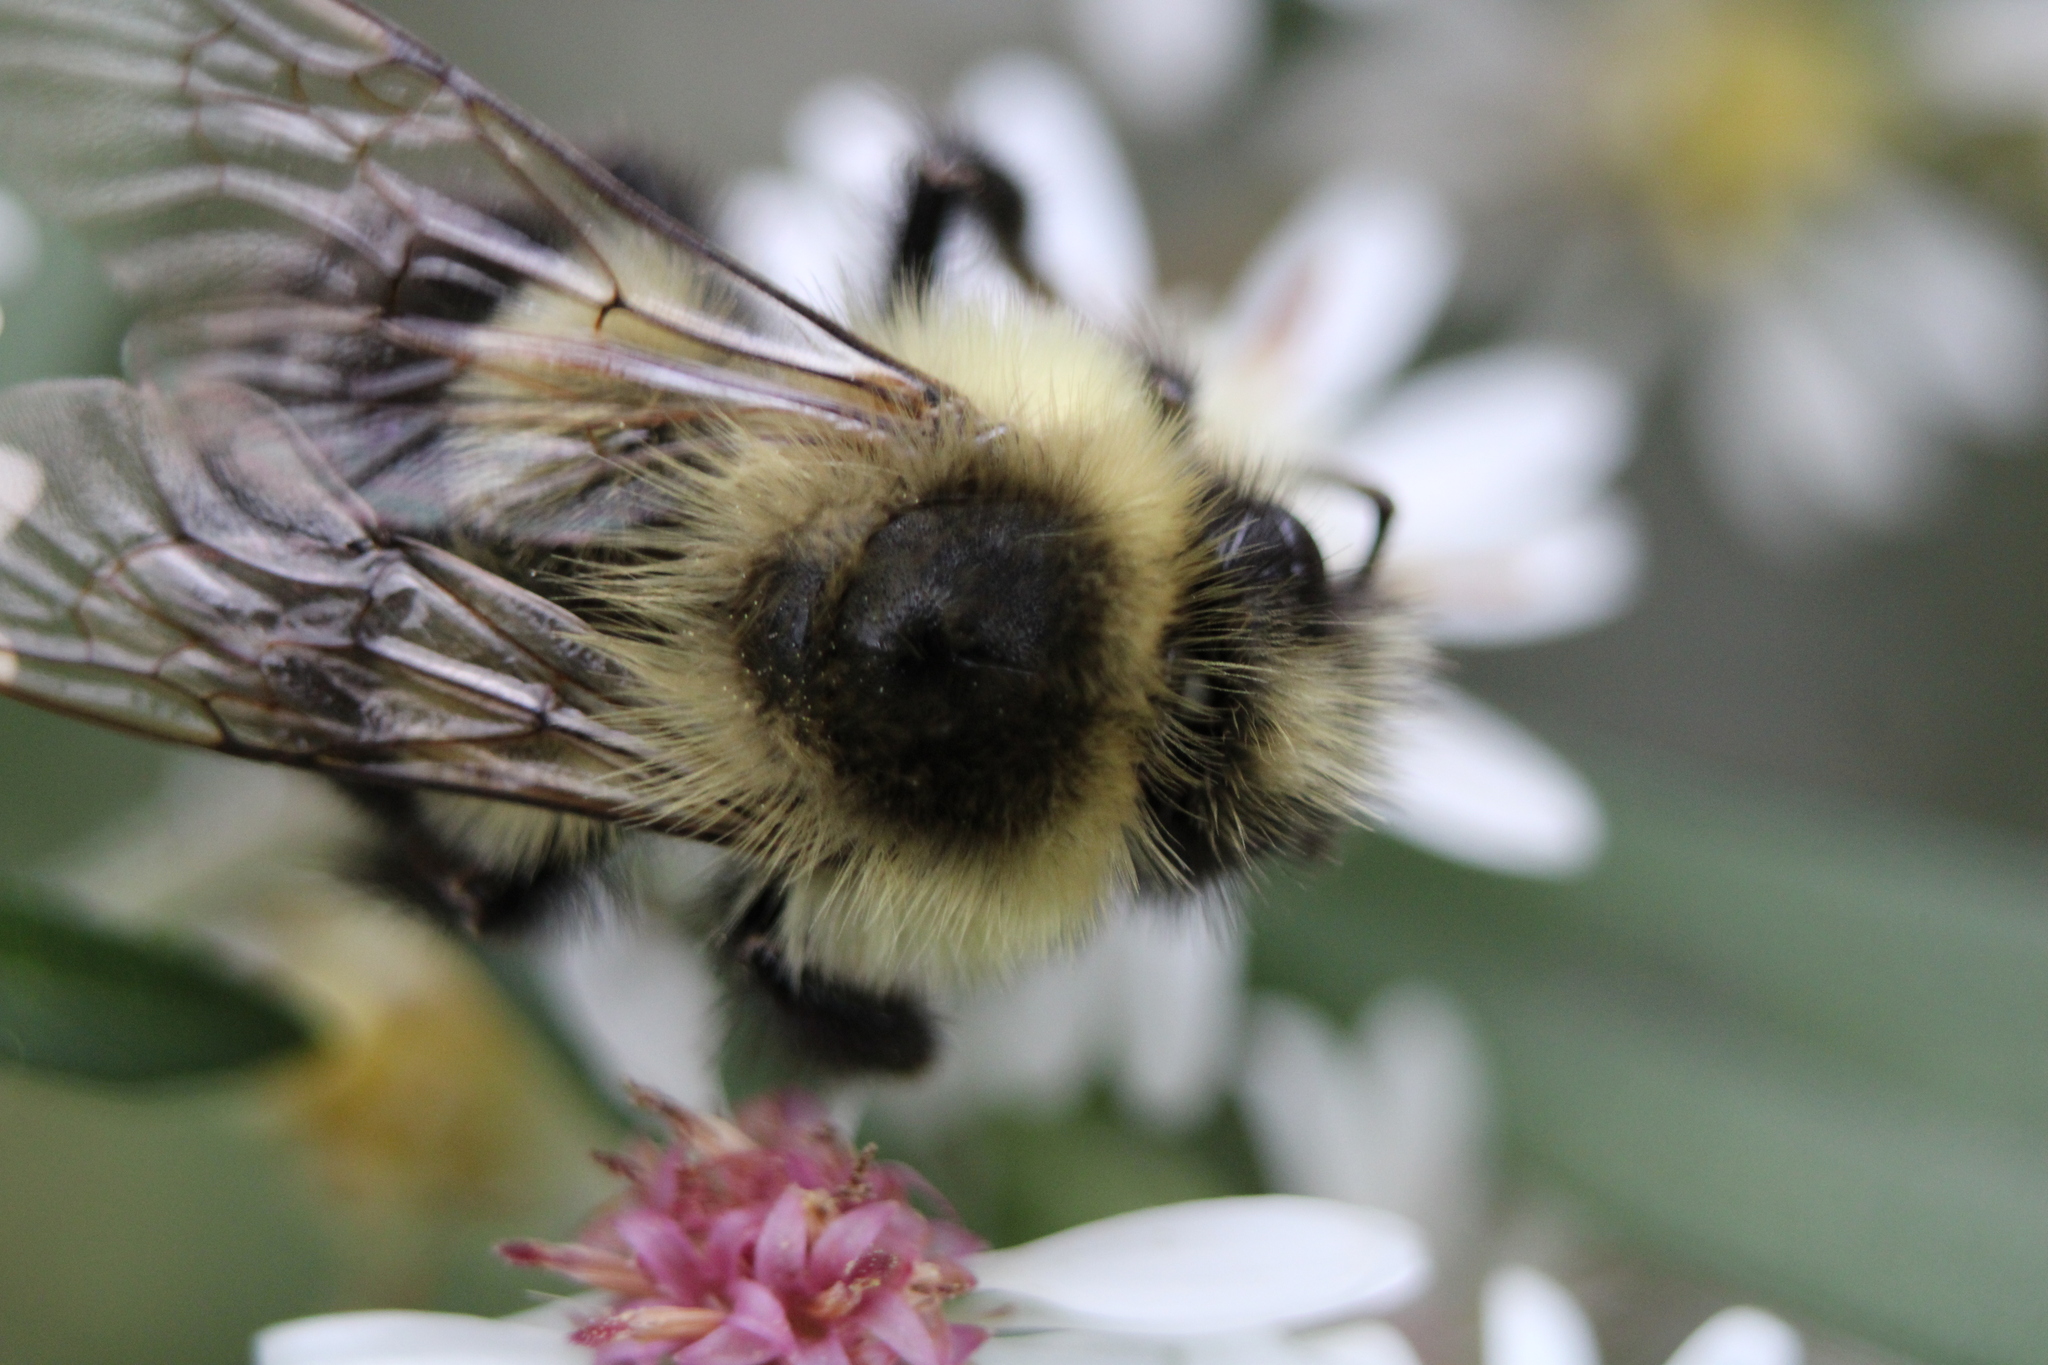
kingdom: Animalia
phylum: Arthropoda
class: Insecta
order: Hymenoptera
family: Apidae
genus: Bombus
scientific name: Bombus impatiens
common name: Common eastern bumble bee
